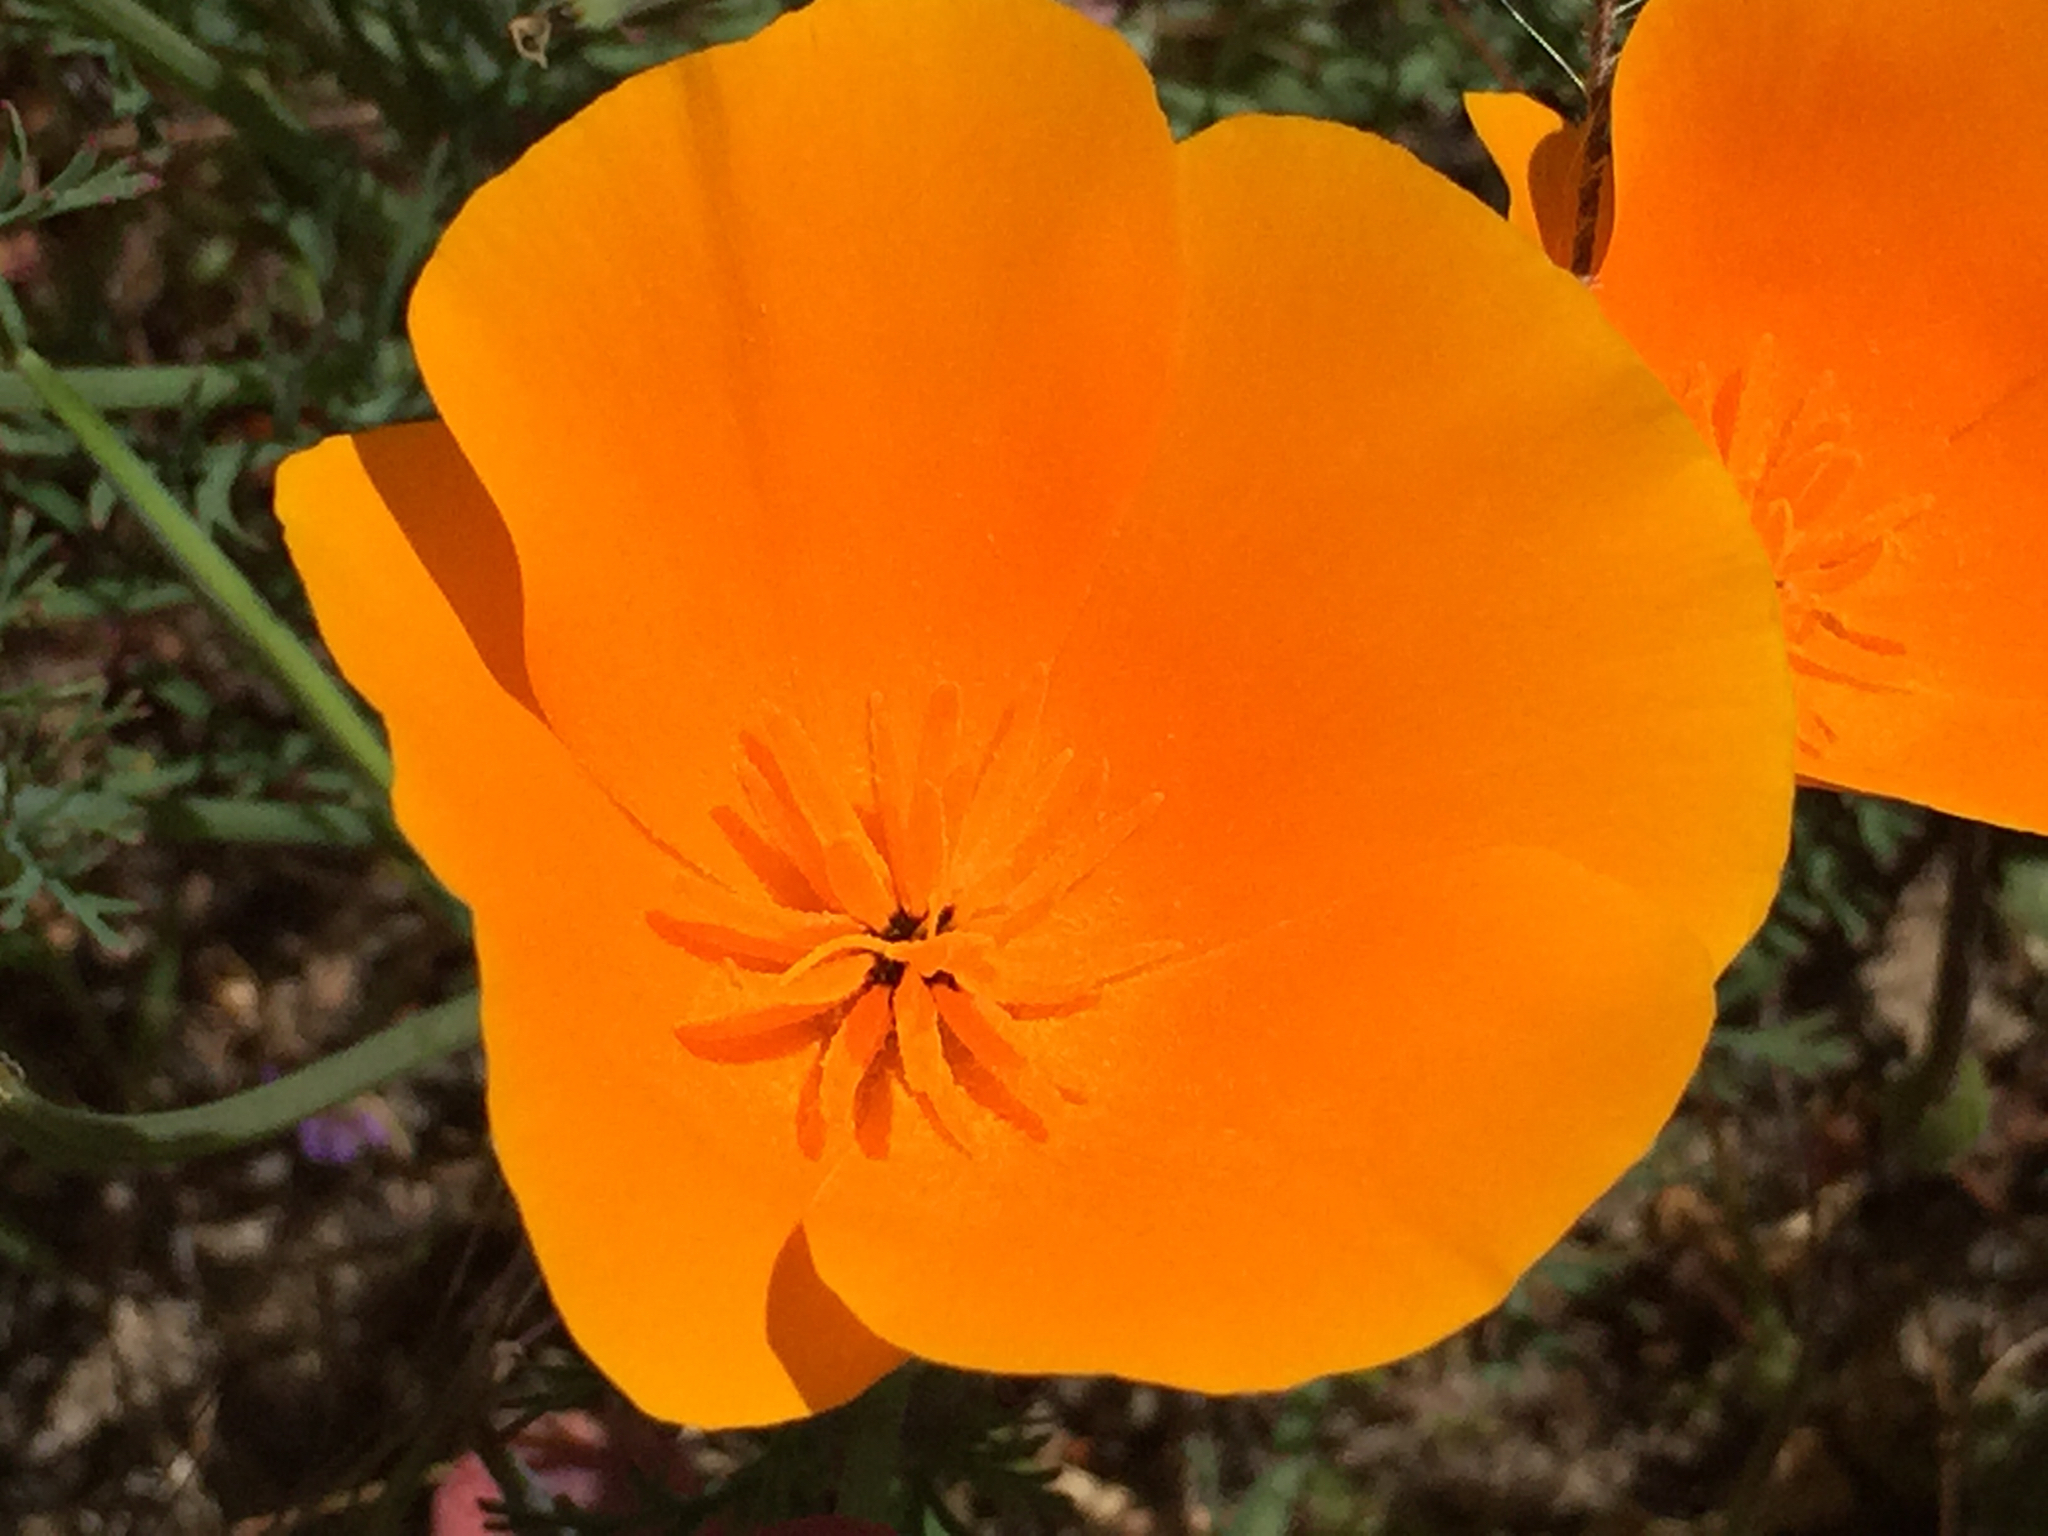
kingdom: Plantae
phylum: Tracheophyta
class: Magnoliopsida
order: Ranunculales
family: Papaveraceae
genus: Eschscholzia
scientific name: Eschscholzia californica
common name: California poppy
